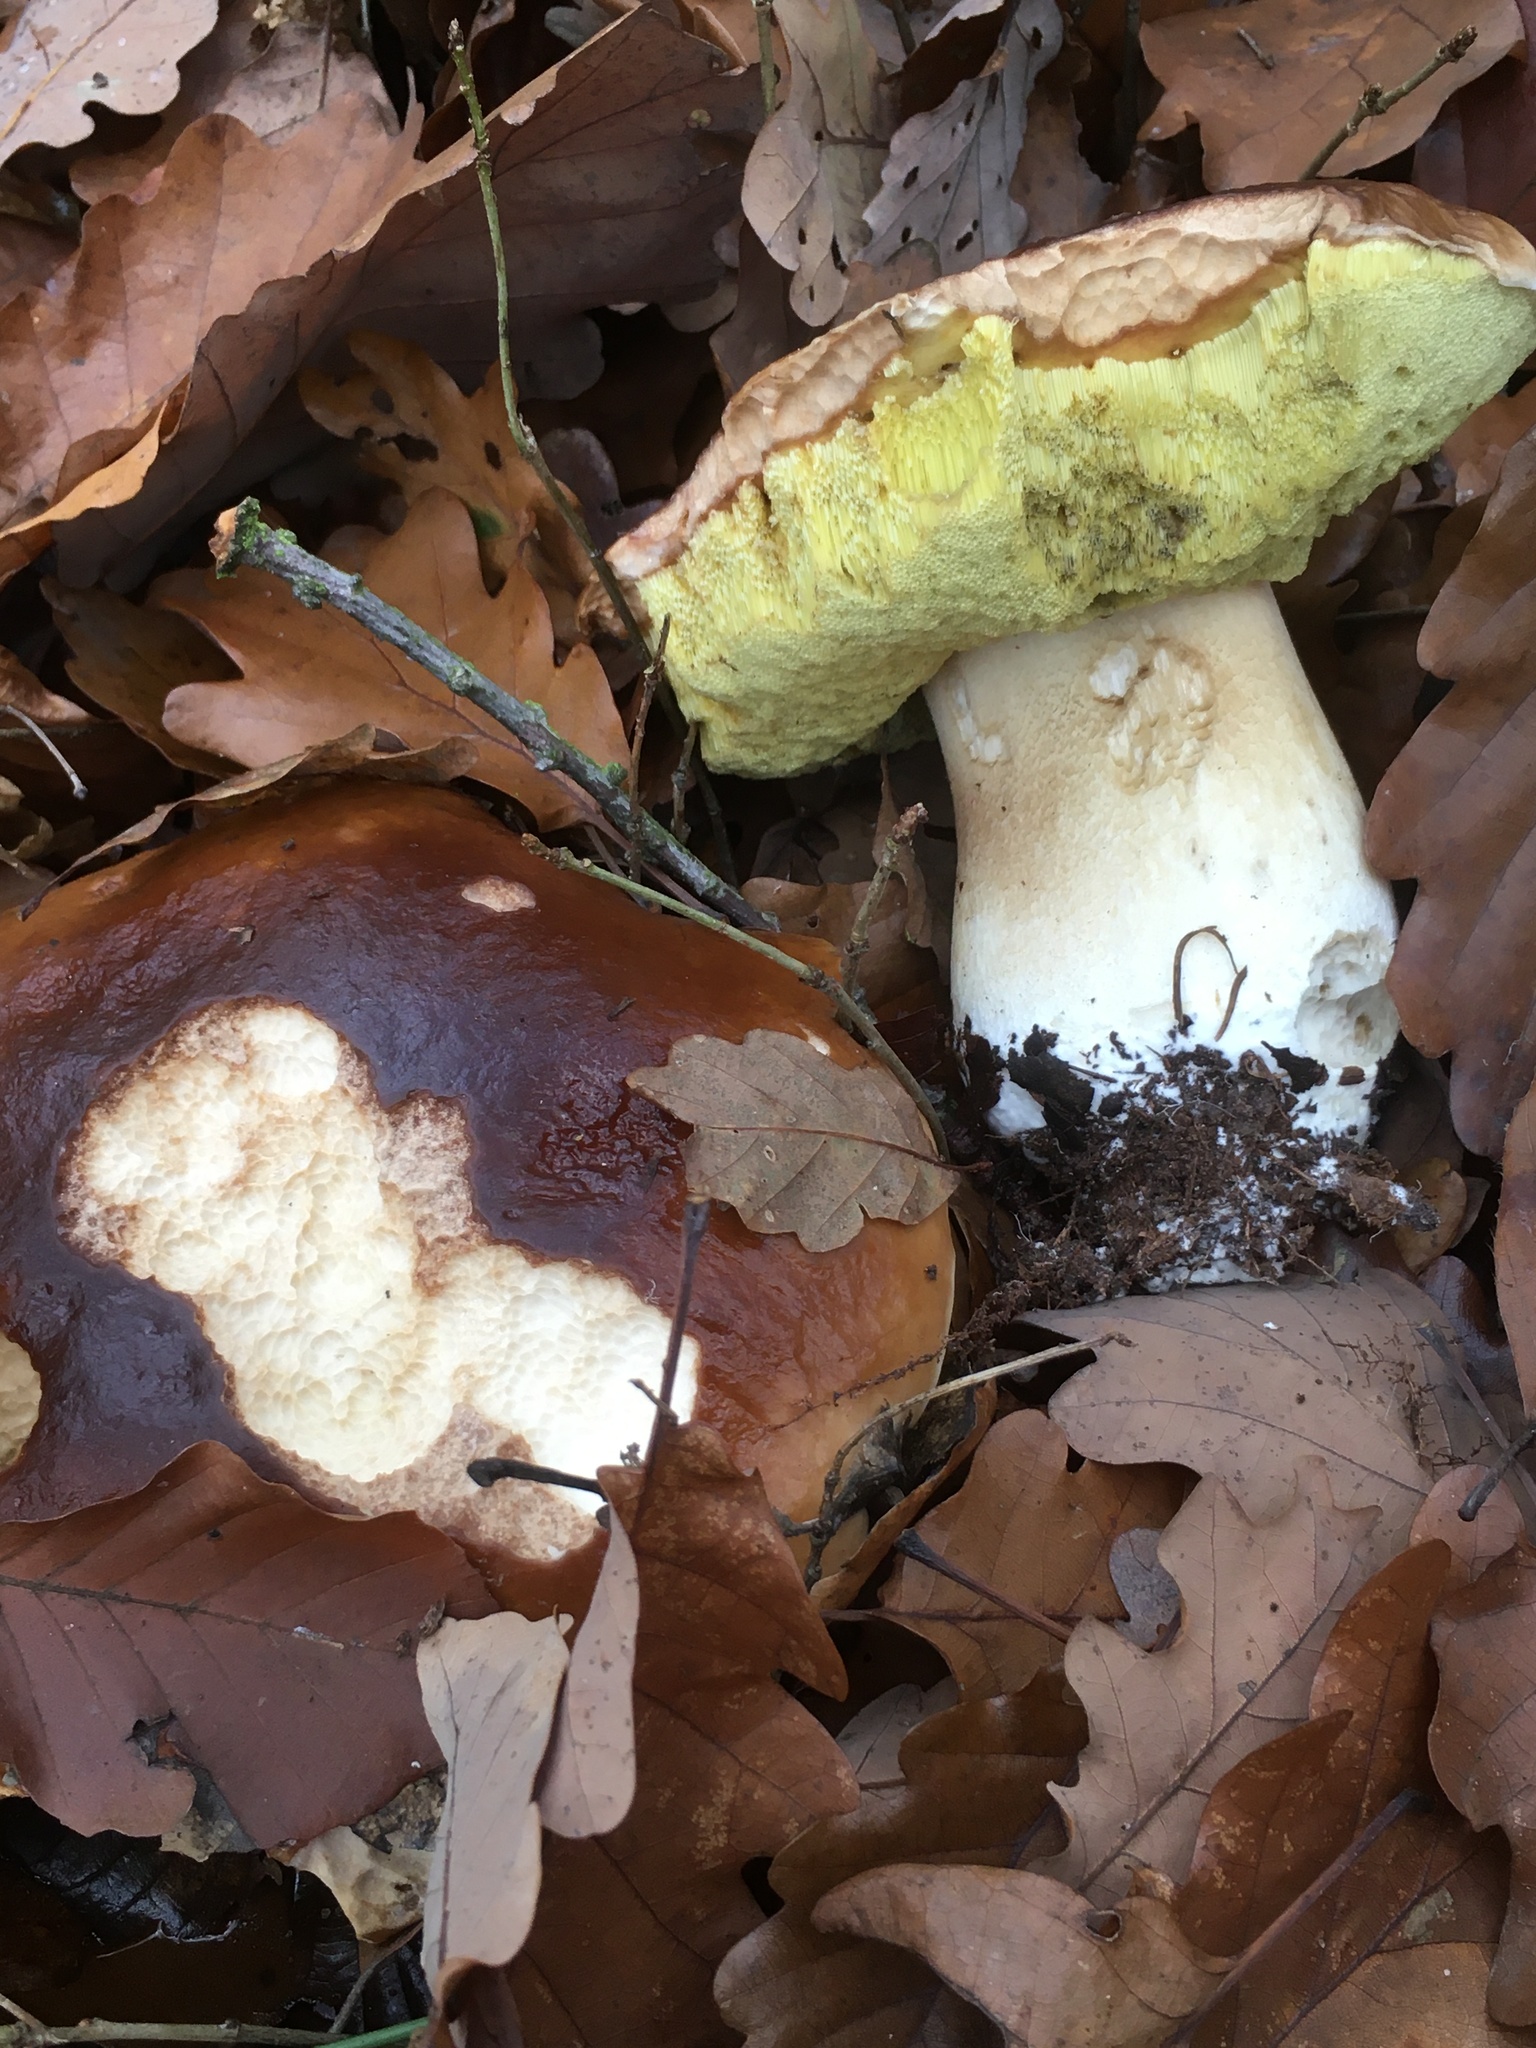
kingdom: Fungi
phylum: Basidiomycota
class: Agaricomycetes
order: Boletales
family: Boletaceae
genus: Boletus
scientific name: Boletus edulis
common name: Cep
